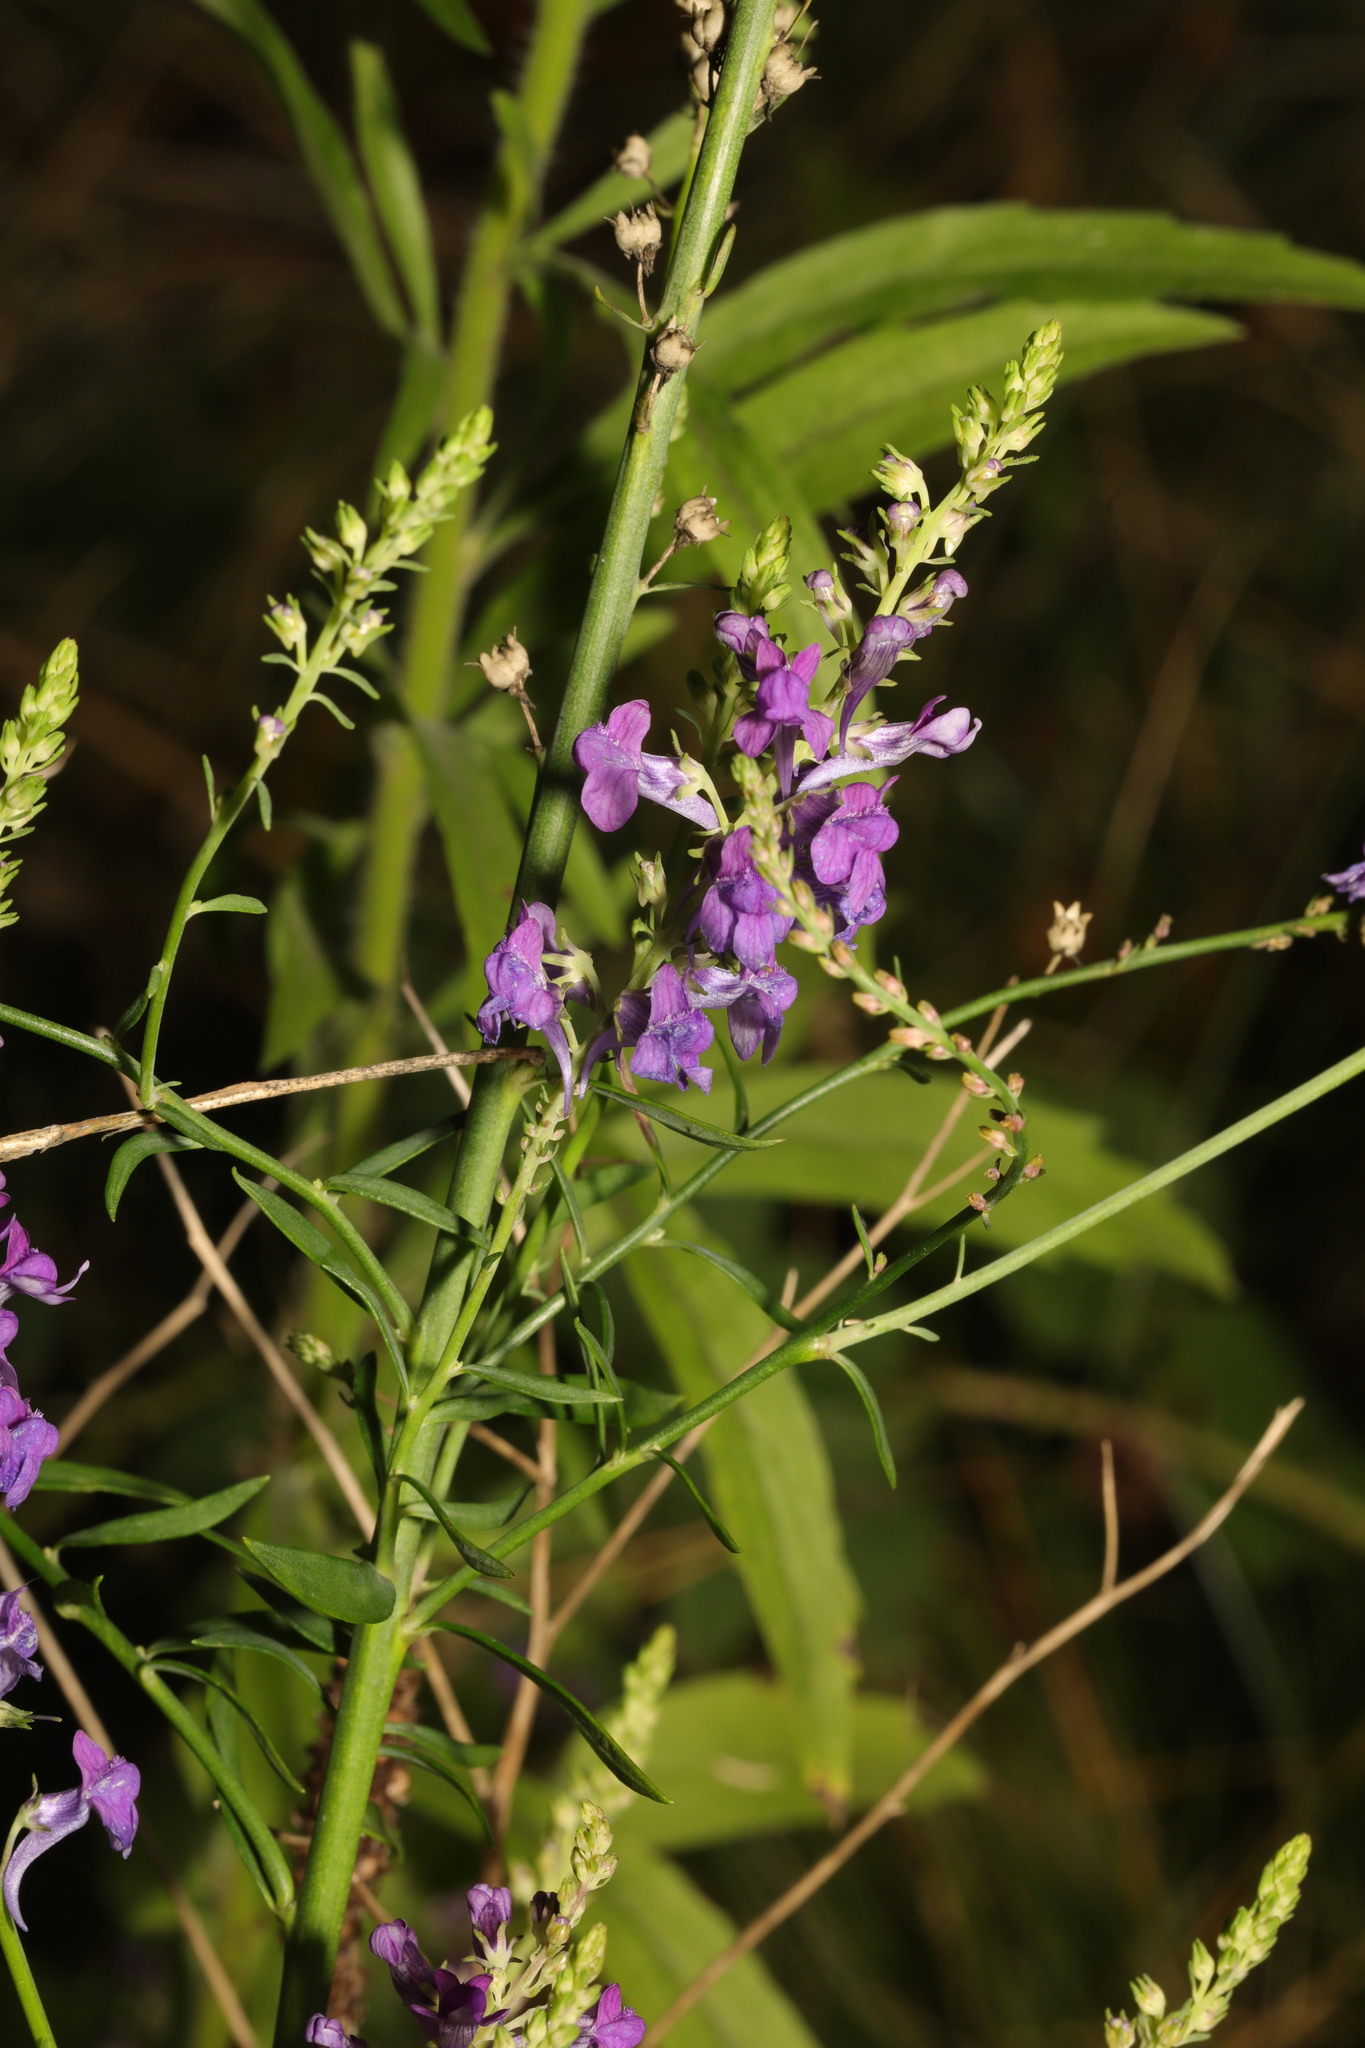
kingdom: Plantae
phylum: Tracheophyta
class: Magnoliopsida
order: Lamiales
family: Plantaginaceae
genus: Linaria
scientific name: Linaria purpurea
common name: Purple toadflax
